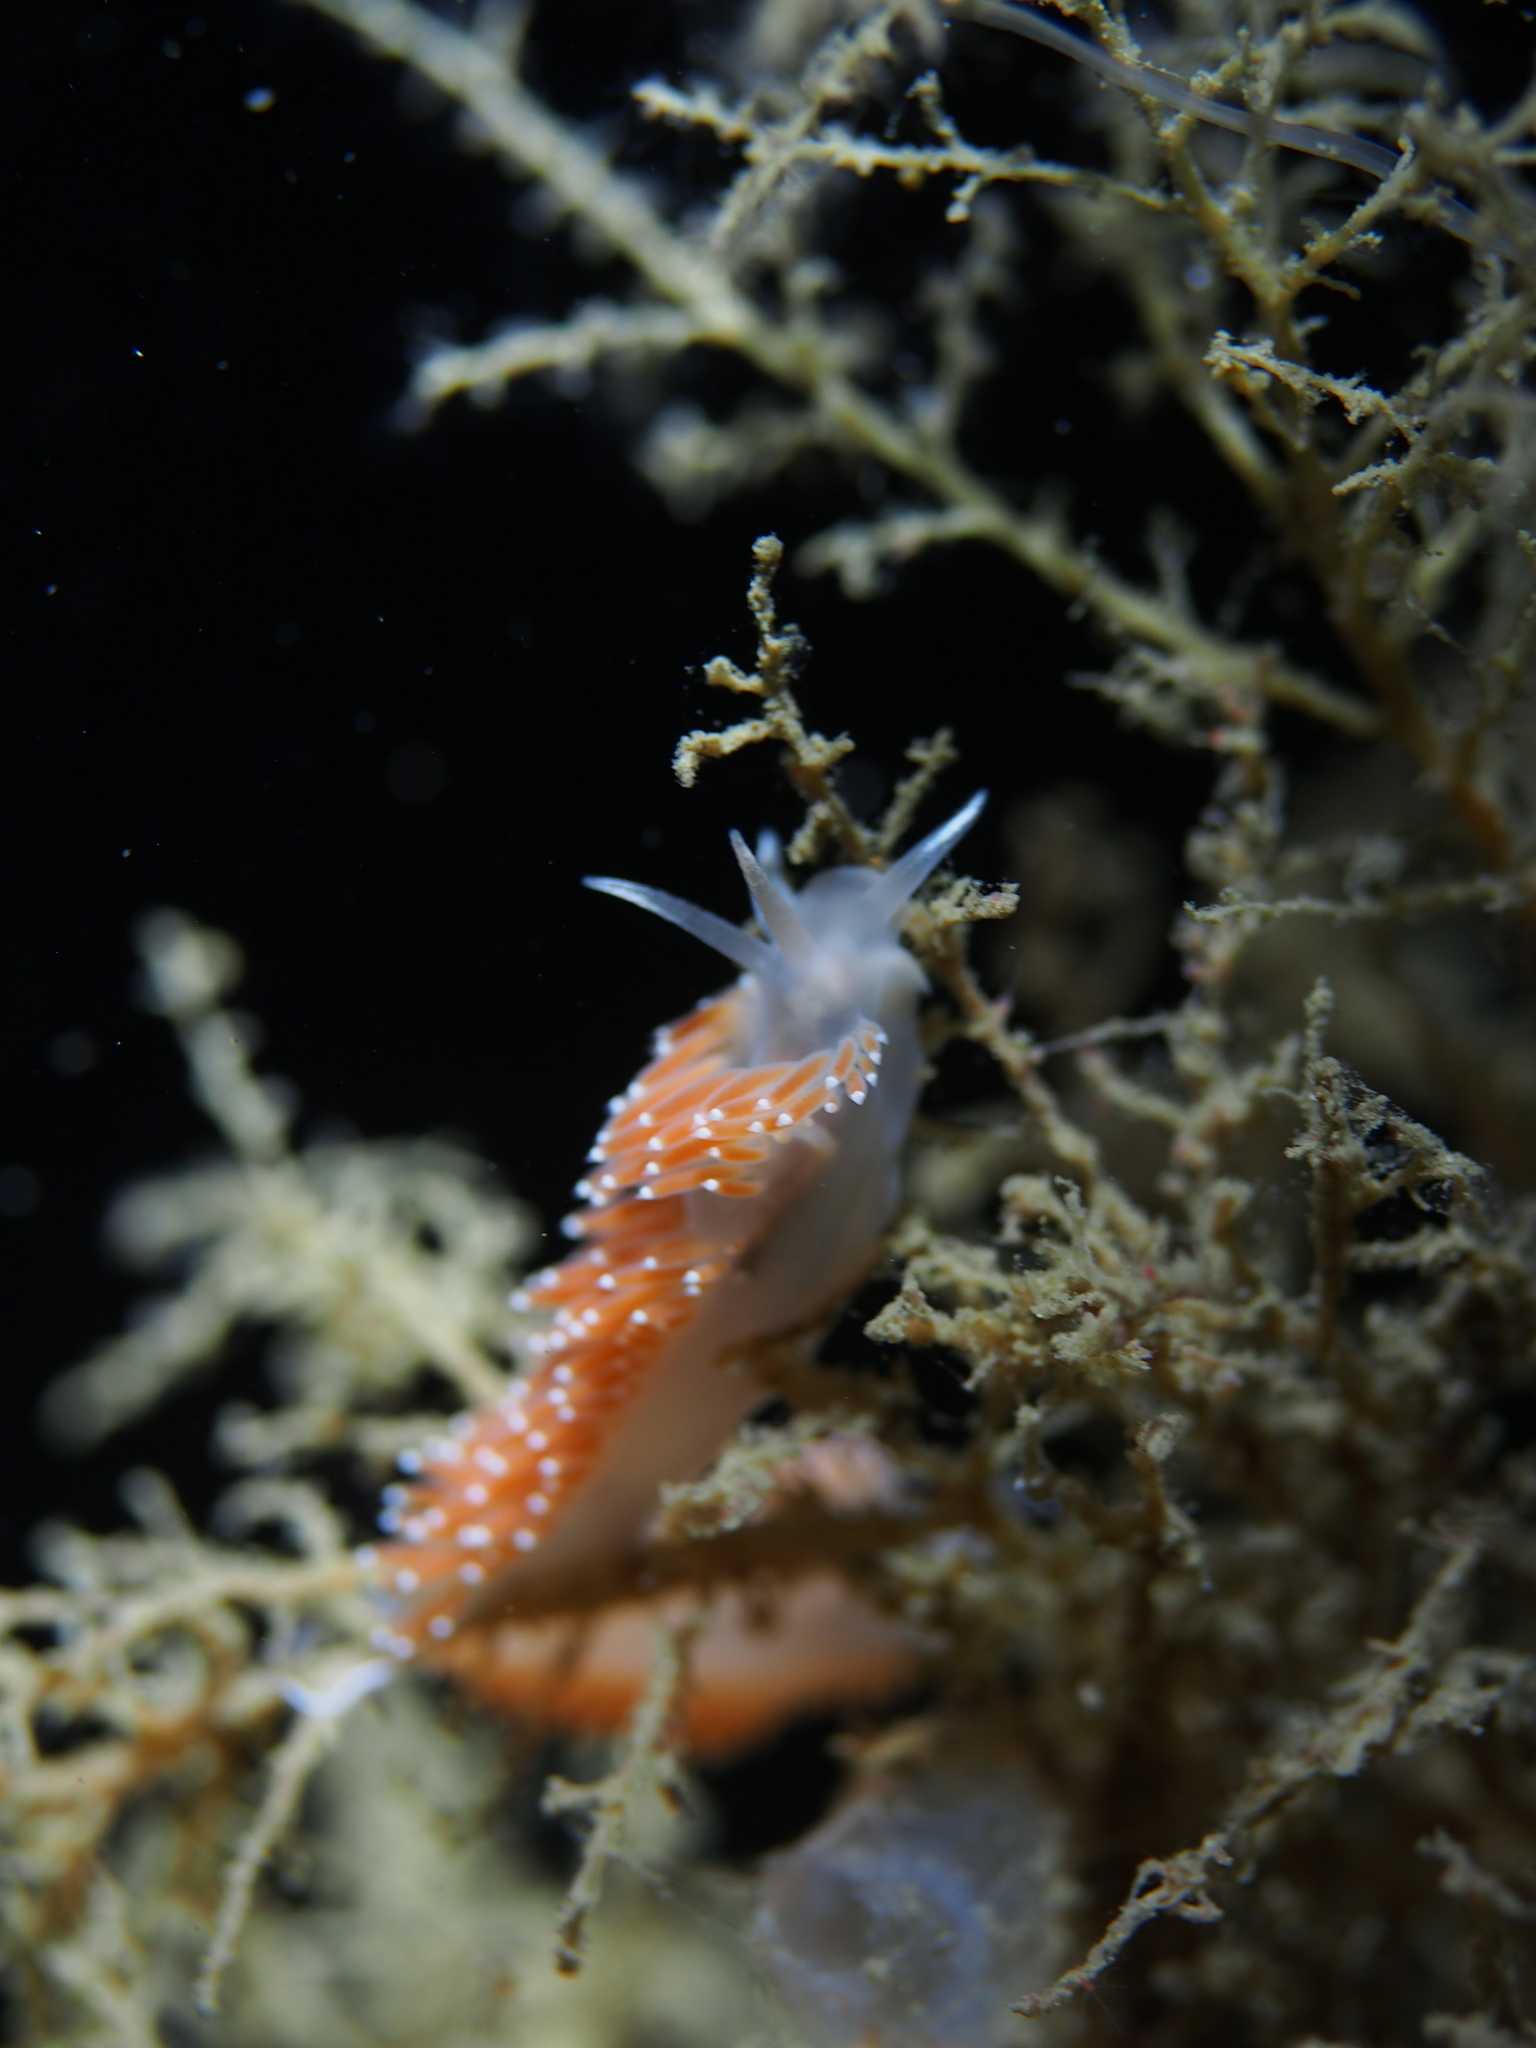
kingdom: Animalia
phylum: Mollusca
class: Gastropoda
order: Nudibranchia
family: Coryphellidae
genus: Coryphella
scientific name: Coryphella verrucosa
